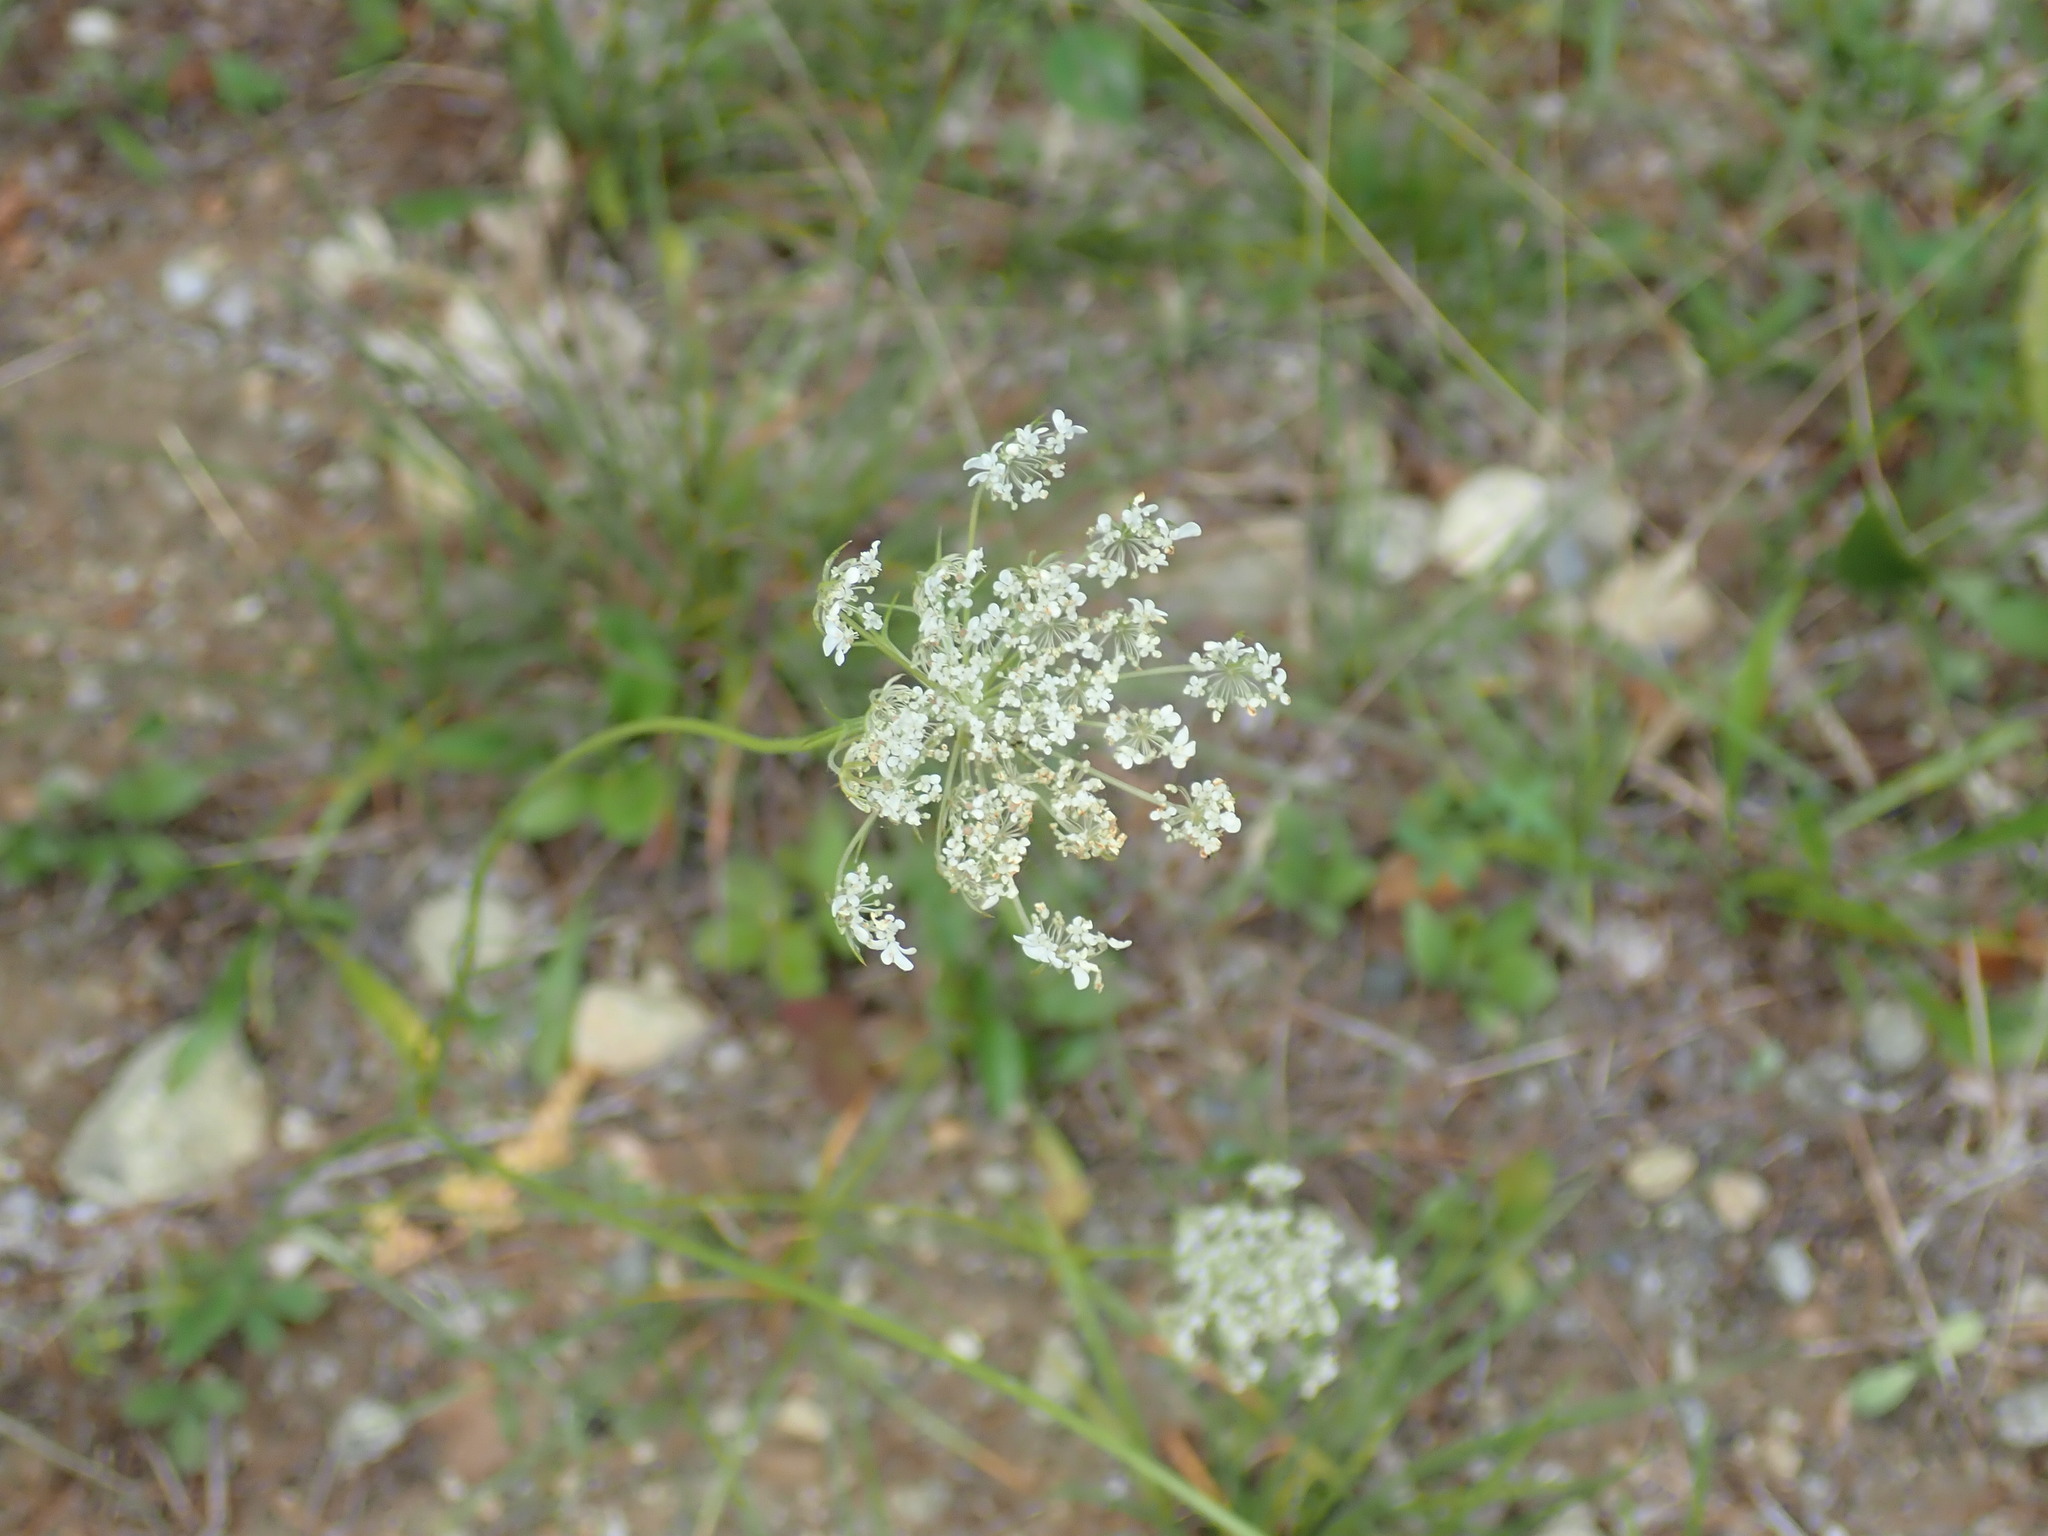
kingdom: Plantae
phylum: Tracheophyta
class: Magnoliopsida
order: Apiales
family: Apiaceae
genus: Daucus
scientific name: Daucus carota
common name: Wild carrot
